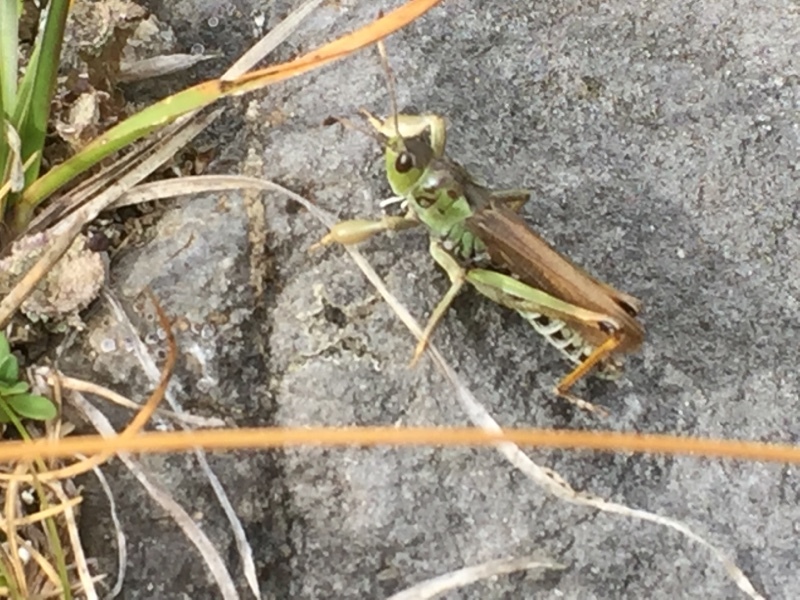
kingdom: Animalia
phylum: Arthropoda
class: Insecta
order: Orthoptera
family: Acrididae
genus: Gomphocerus
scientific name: Gomphocerus sibiricus
